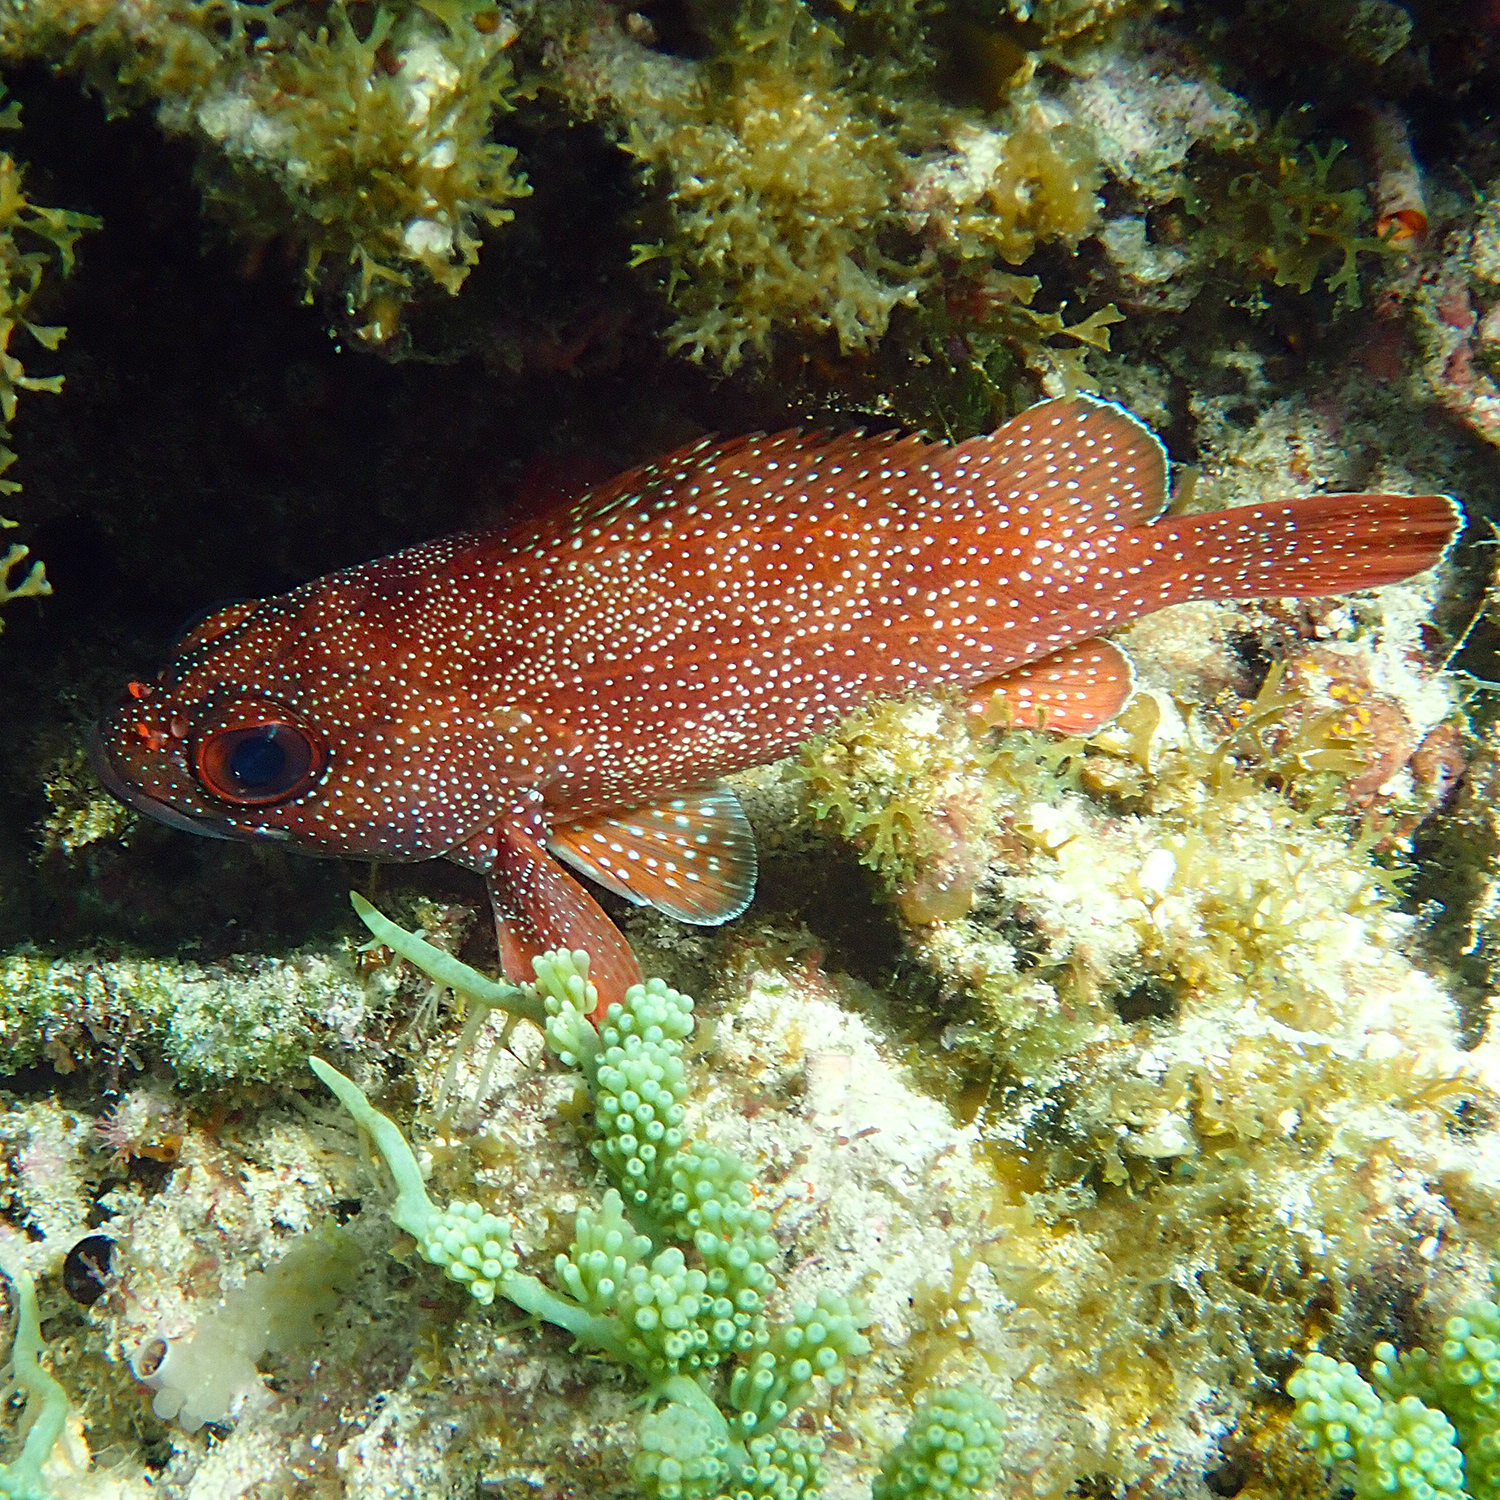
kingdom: Animalia
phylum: Chordata
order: Perciformes
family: Serranidae
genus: Trachypoma
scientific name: Trachypoma macracanthus
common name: Toadstool grouper
